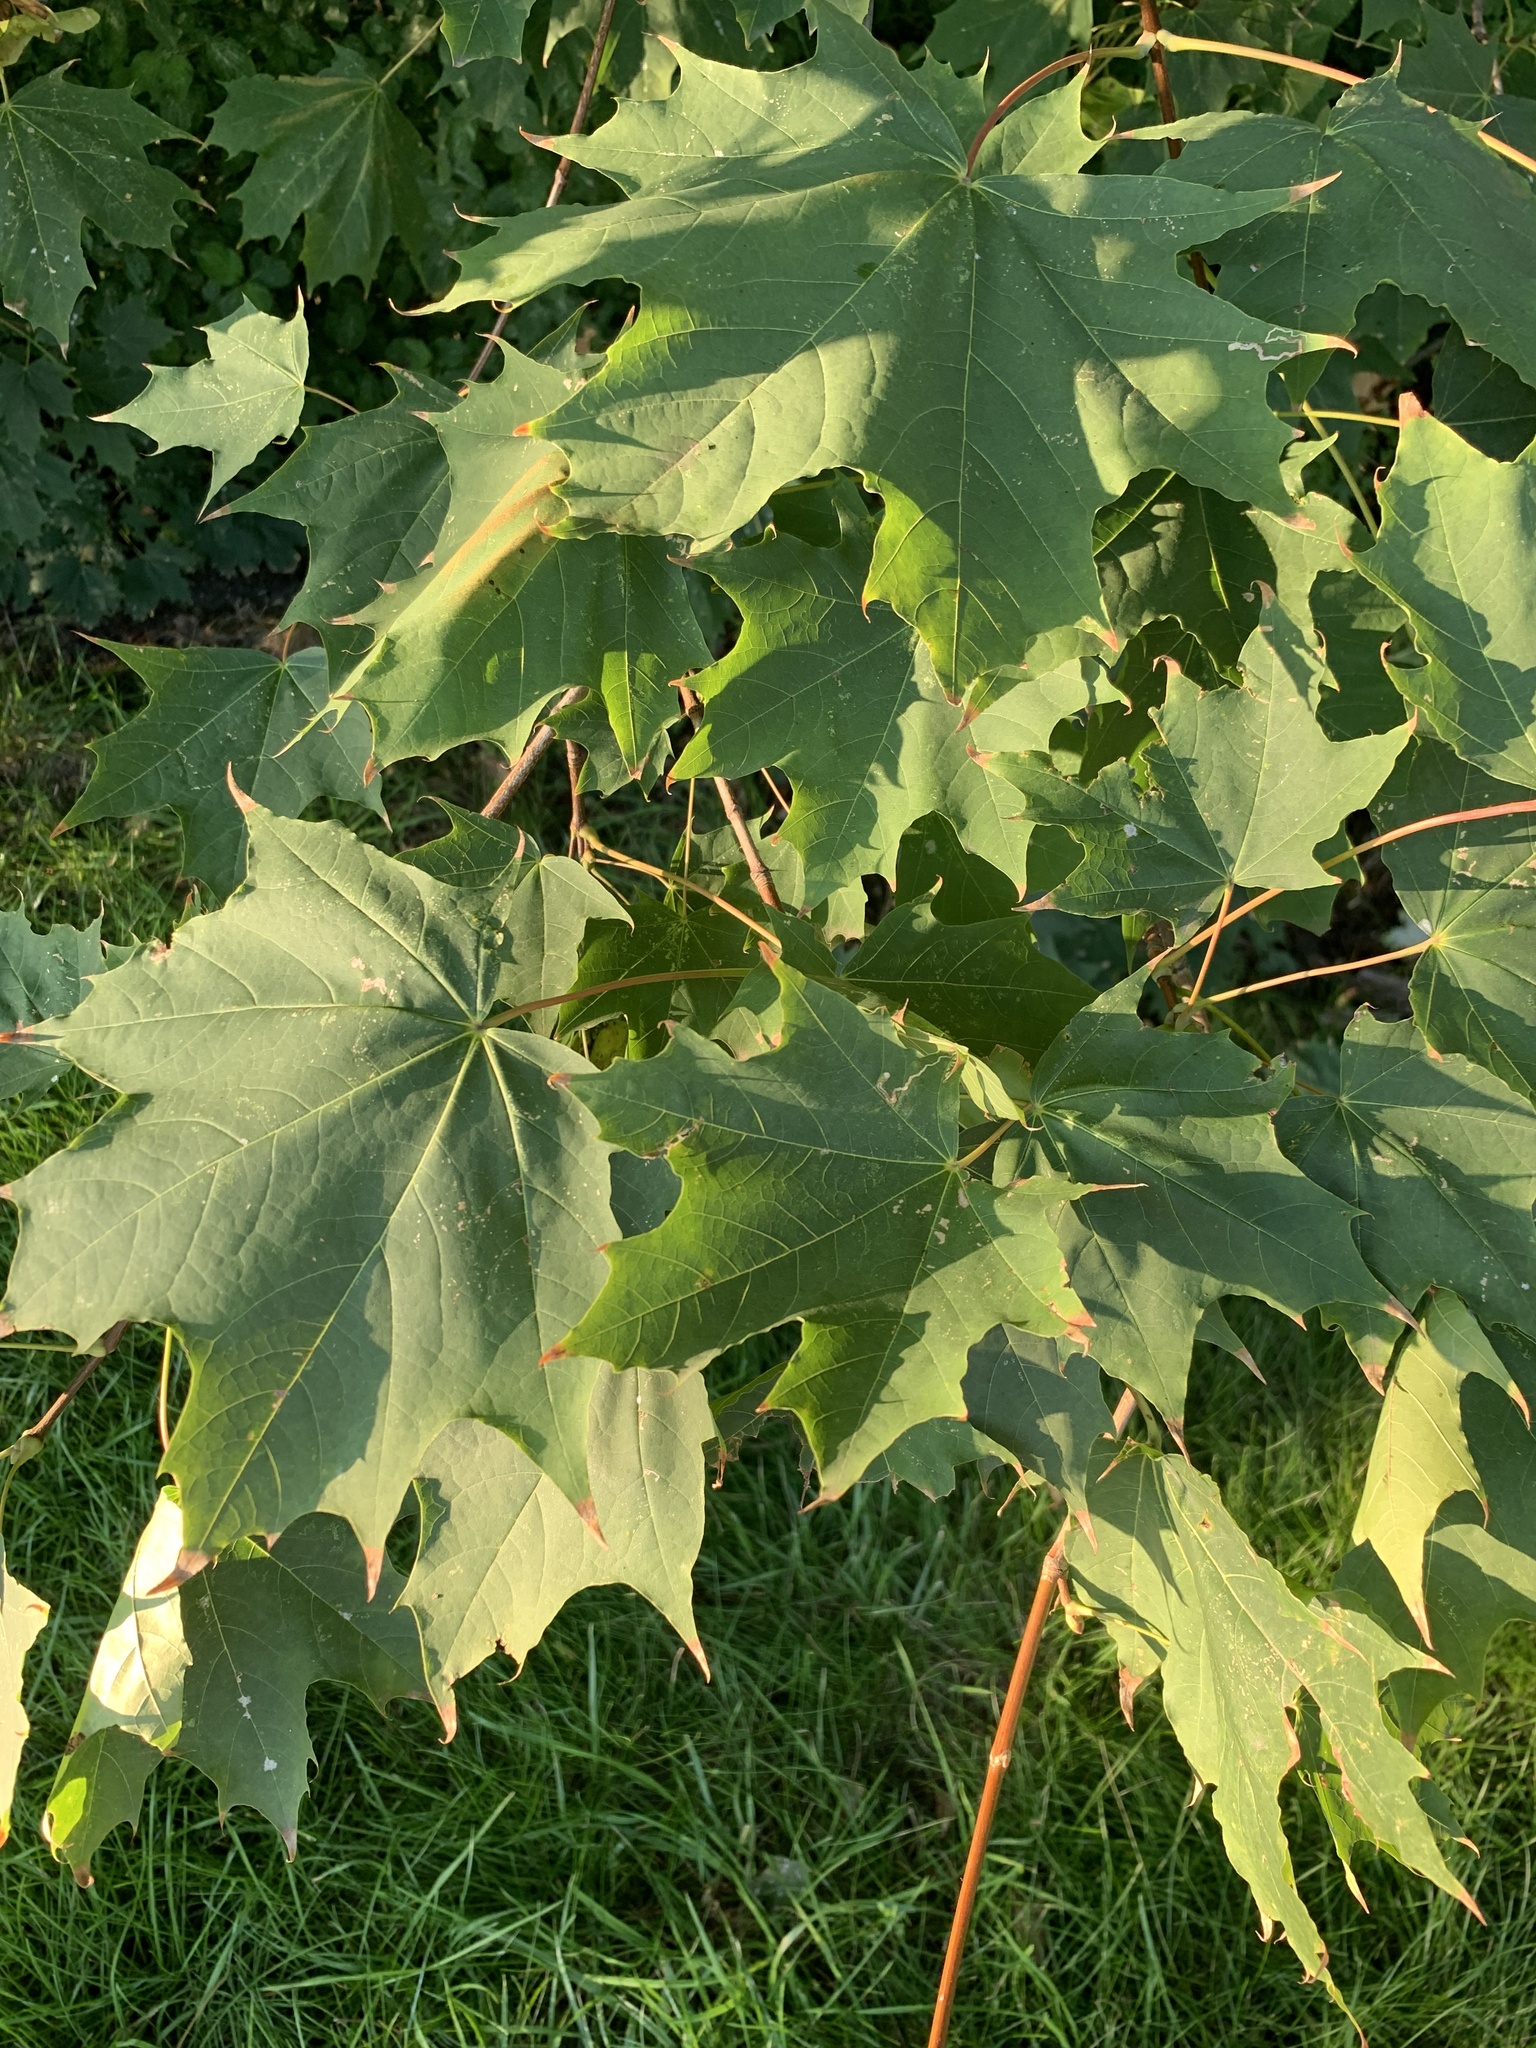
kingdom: Plantae
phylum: Tracheophyta
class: Magnoliopsida
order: Sapindales
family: Sapindaceae
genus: Acer
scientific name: Acer platanoides
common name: Norway maple
